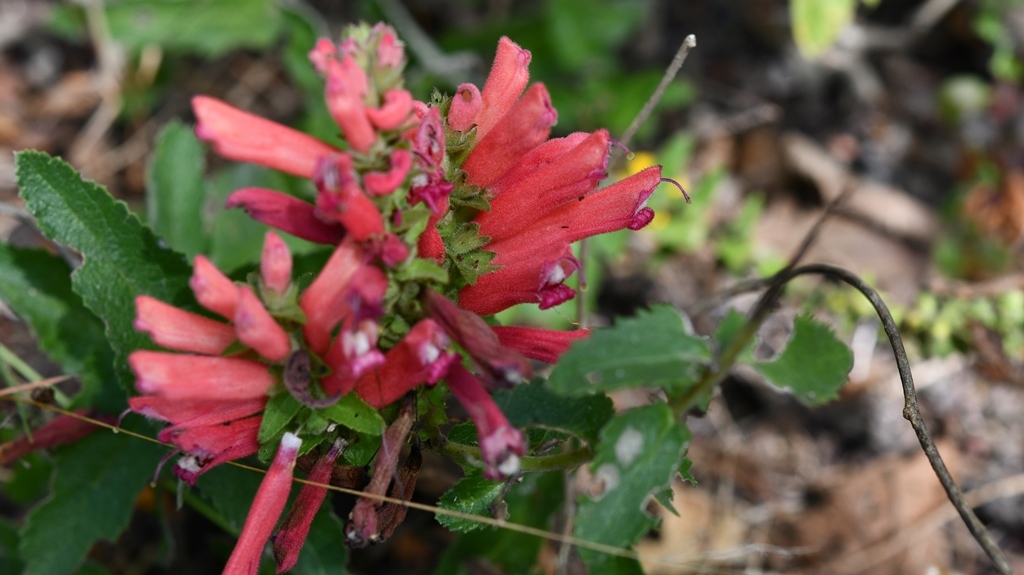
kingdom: Plantae
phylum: Tracheophyta
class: Magnoliopsida
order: Lamiales
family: Orobanchaceae
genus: Lamourouxia
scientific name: Lamourouxia viscosa
